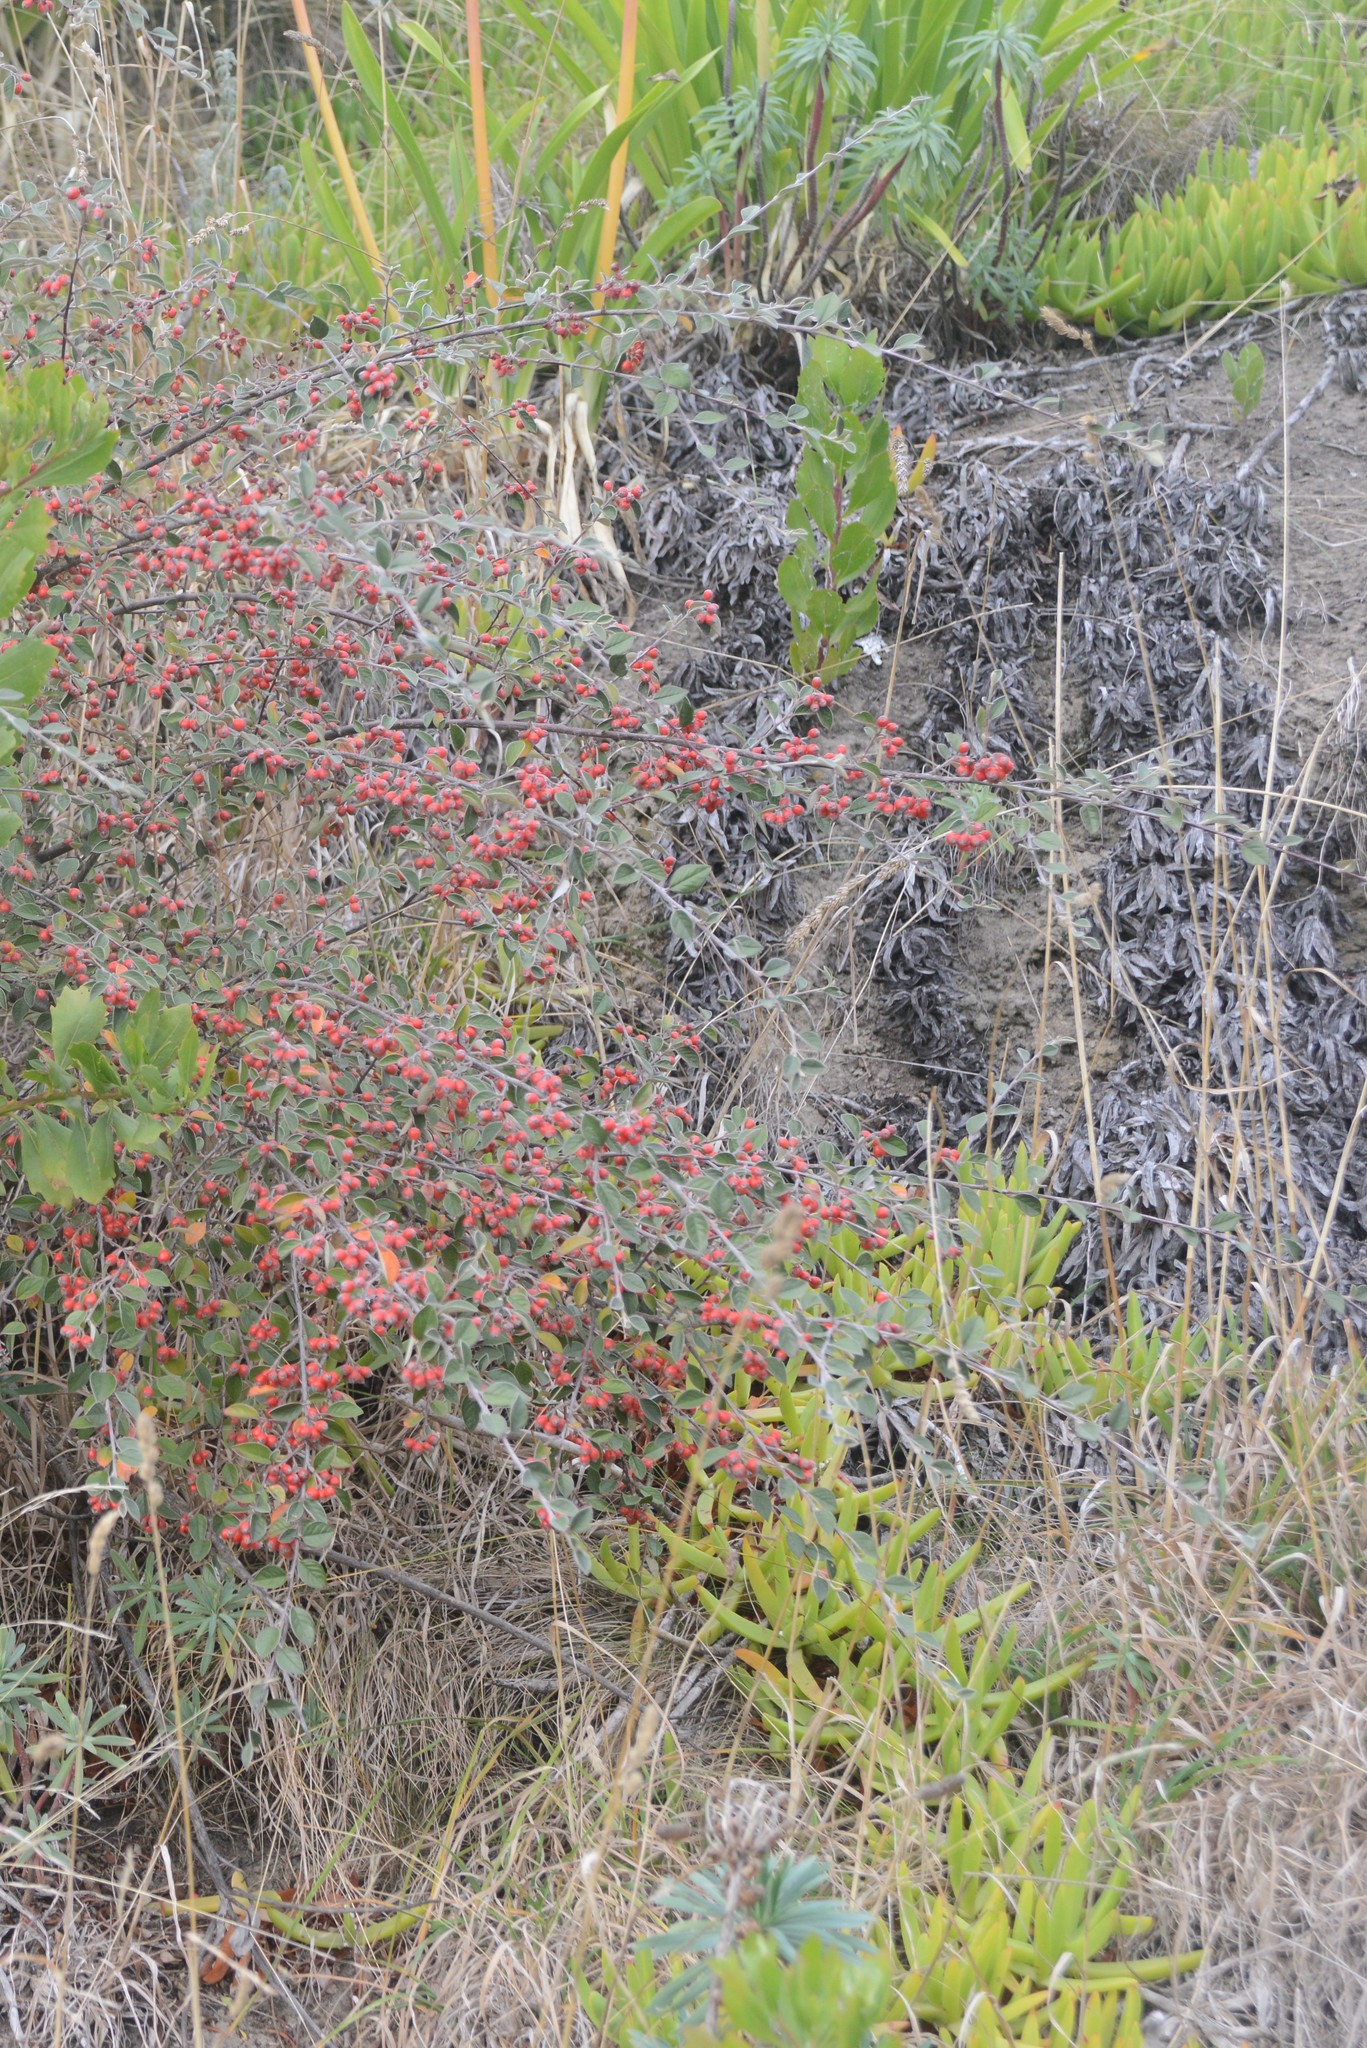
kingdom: Plantae
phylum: Tracheophyta
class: Magnoliopsida
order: Rosales
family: Rosaceae
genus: Cotoneaster
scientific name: Cotoneaster franchetii
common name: Franchet's cotoneaster
